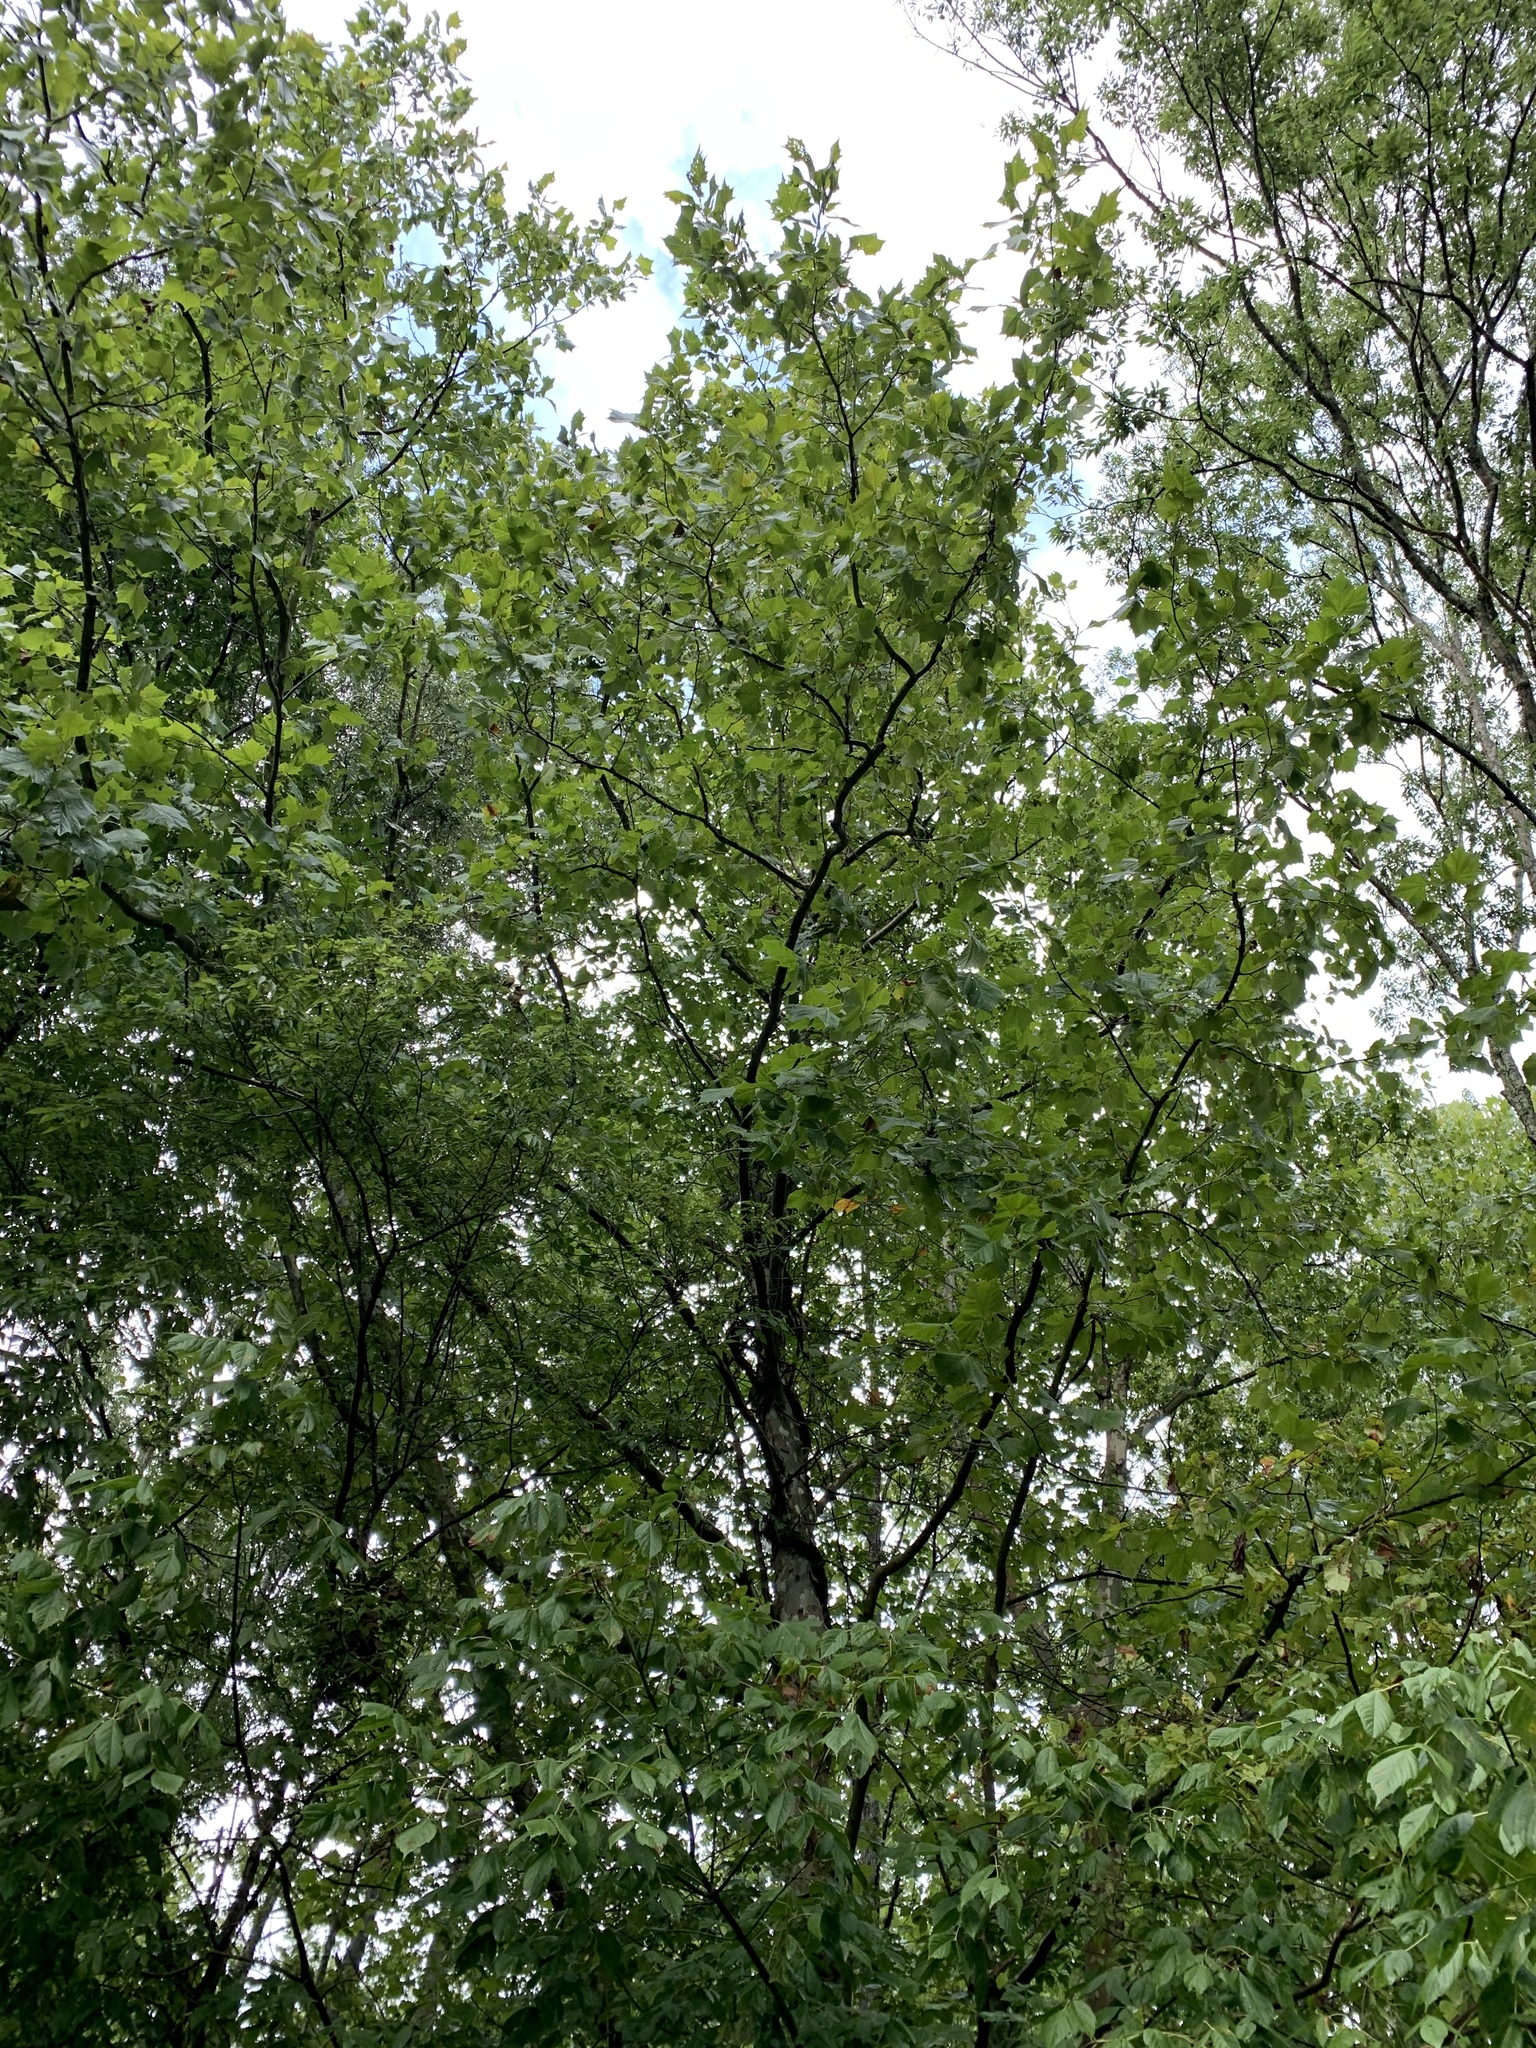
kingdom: Plantae
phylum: Tracheophyta
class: Magnoliopsida
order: Sapindales
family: Sapindaceae
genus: Acer
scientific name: Acer negundo
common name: Ashleaf maple
